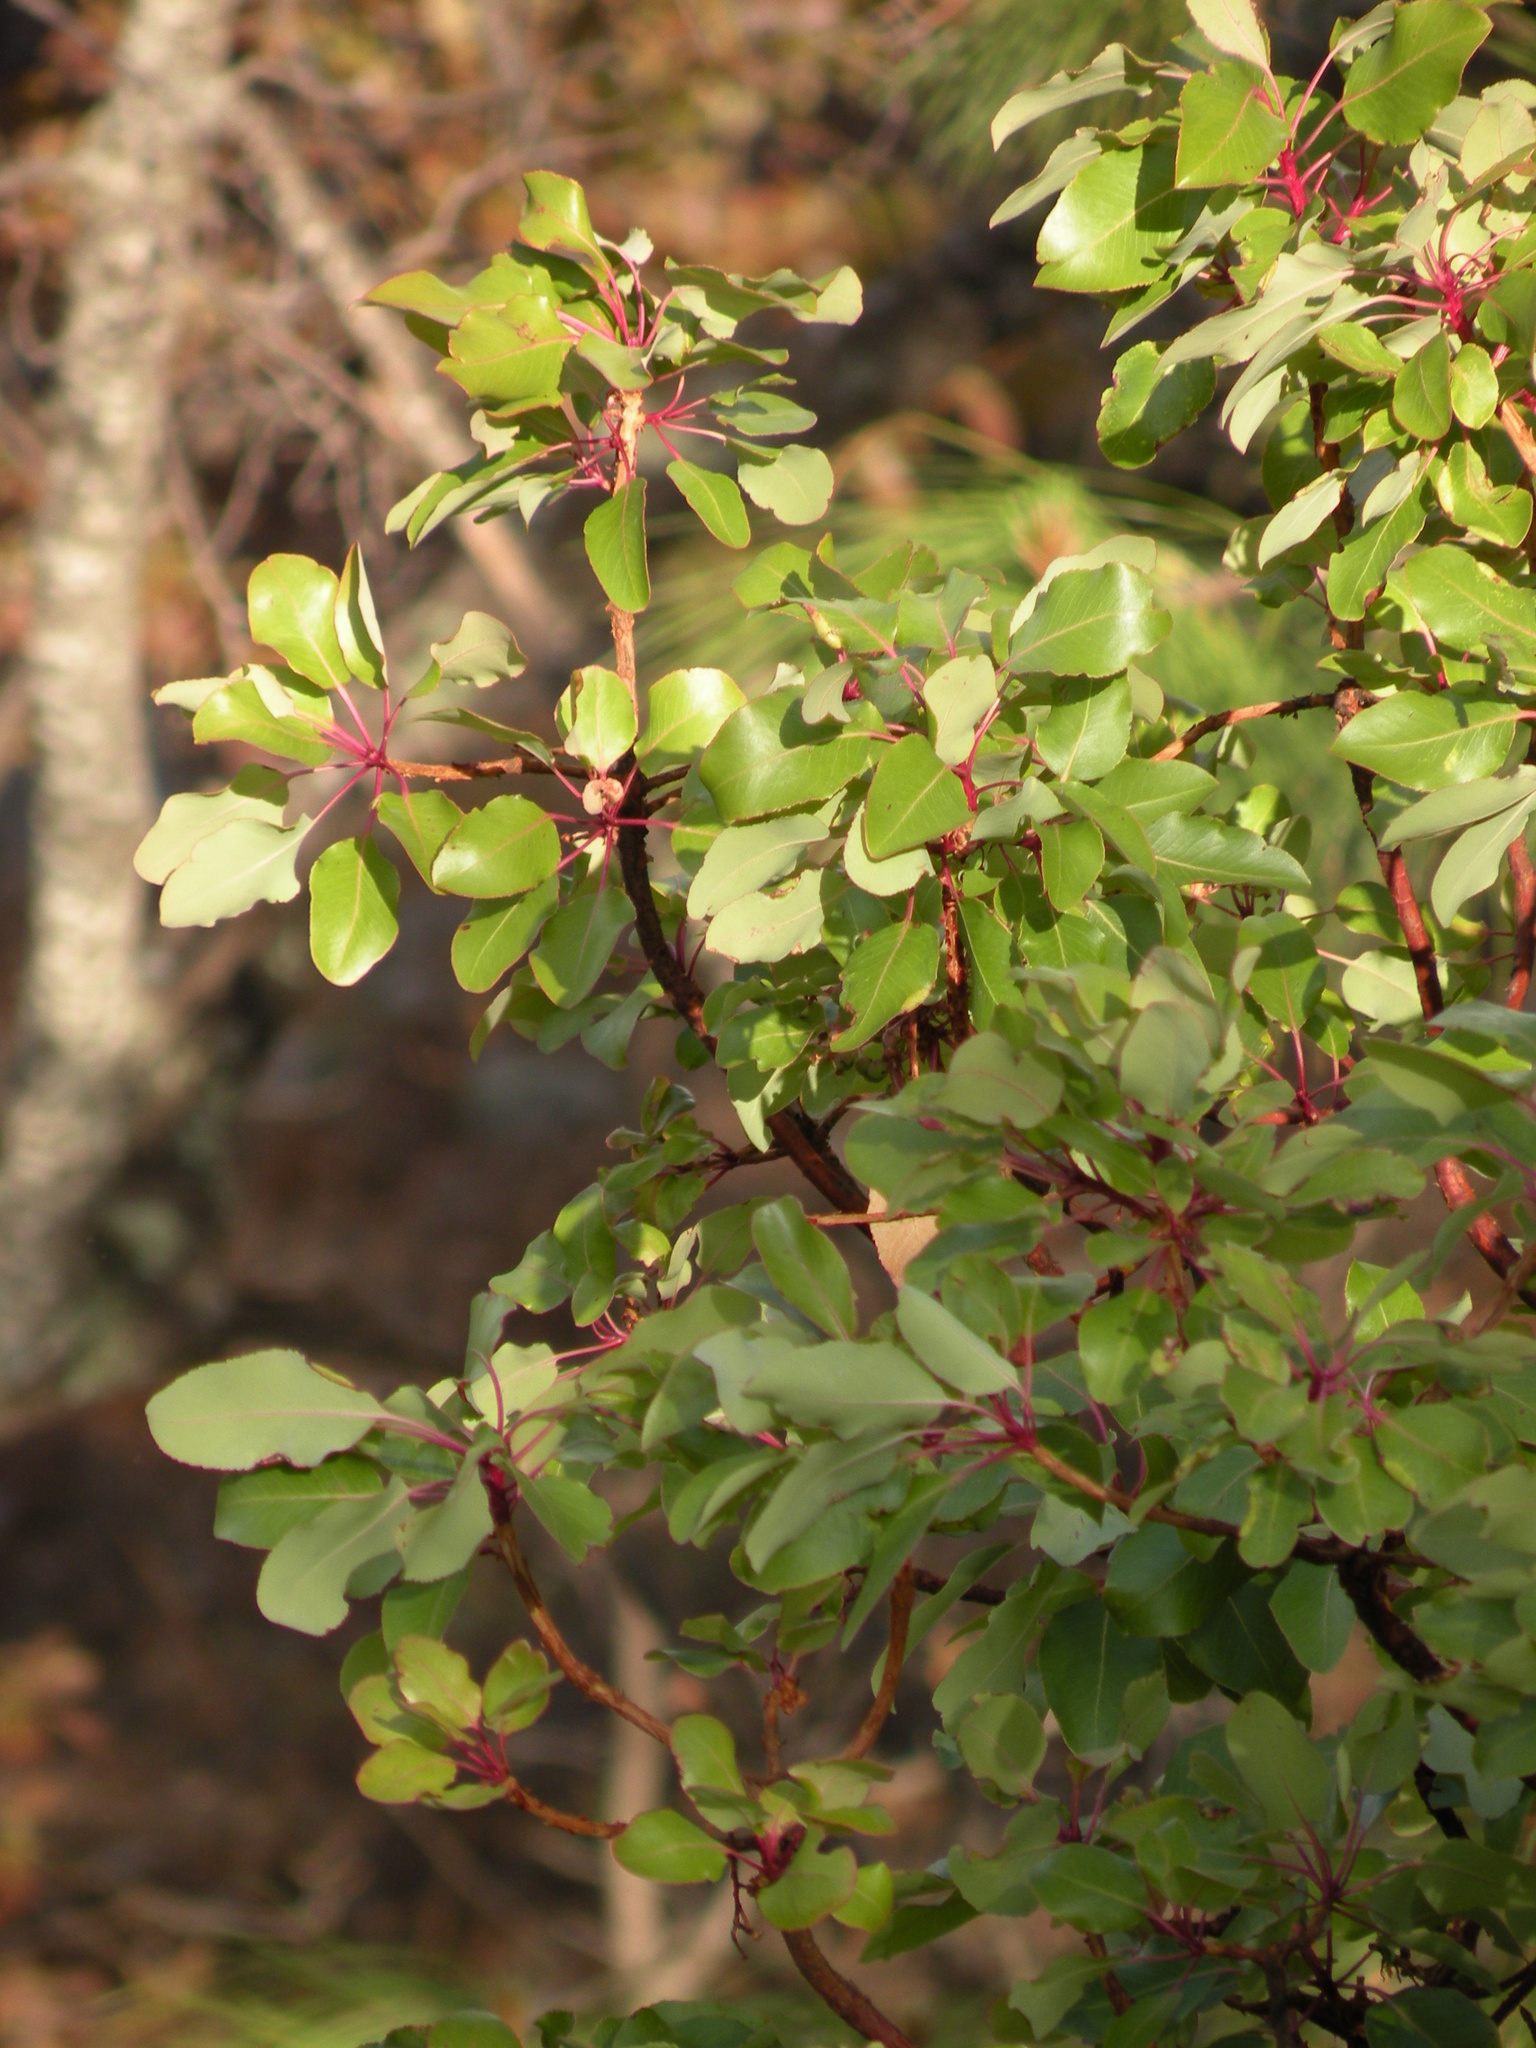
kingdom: Plantae
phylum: Tracheophyta
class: Magnoliopsida
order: Ericales
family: Ericaceae
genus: Arbutus
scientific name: Arbutus arizonica
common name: Arizona madrone
